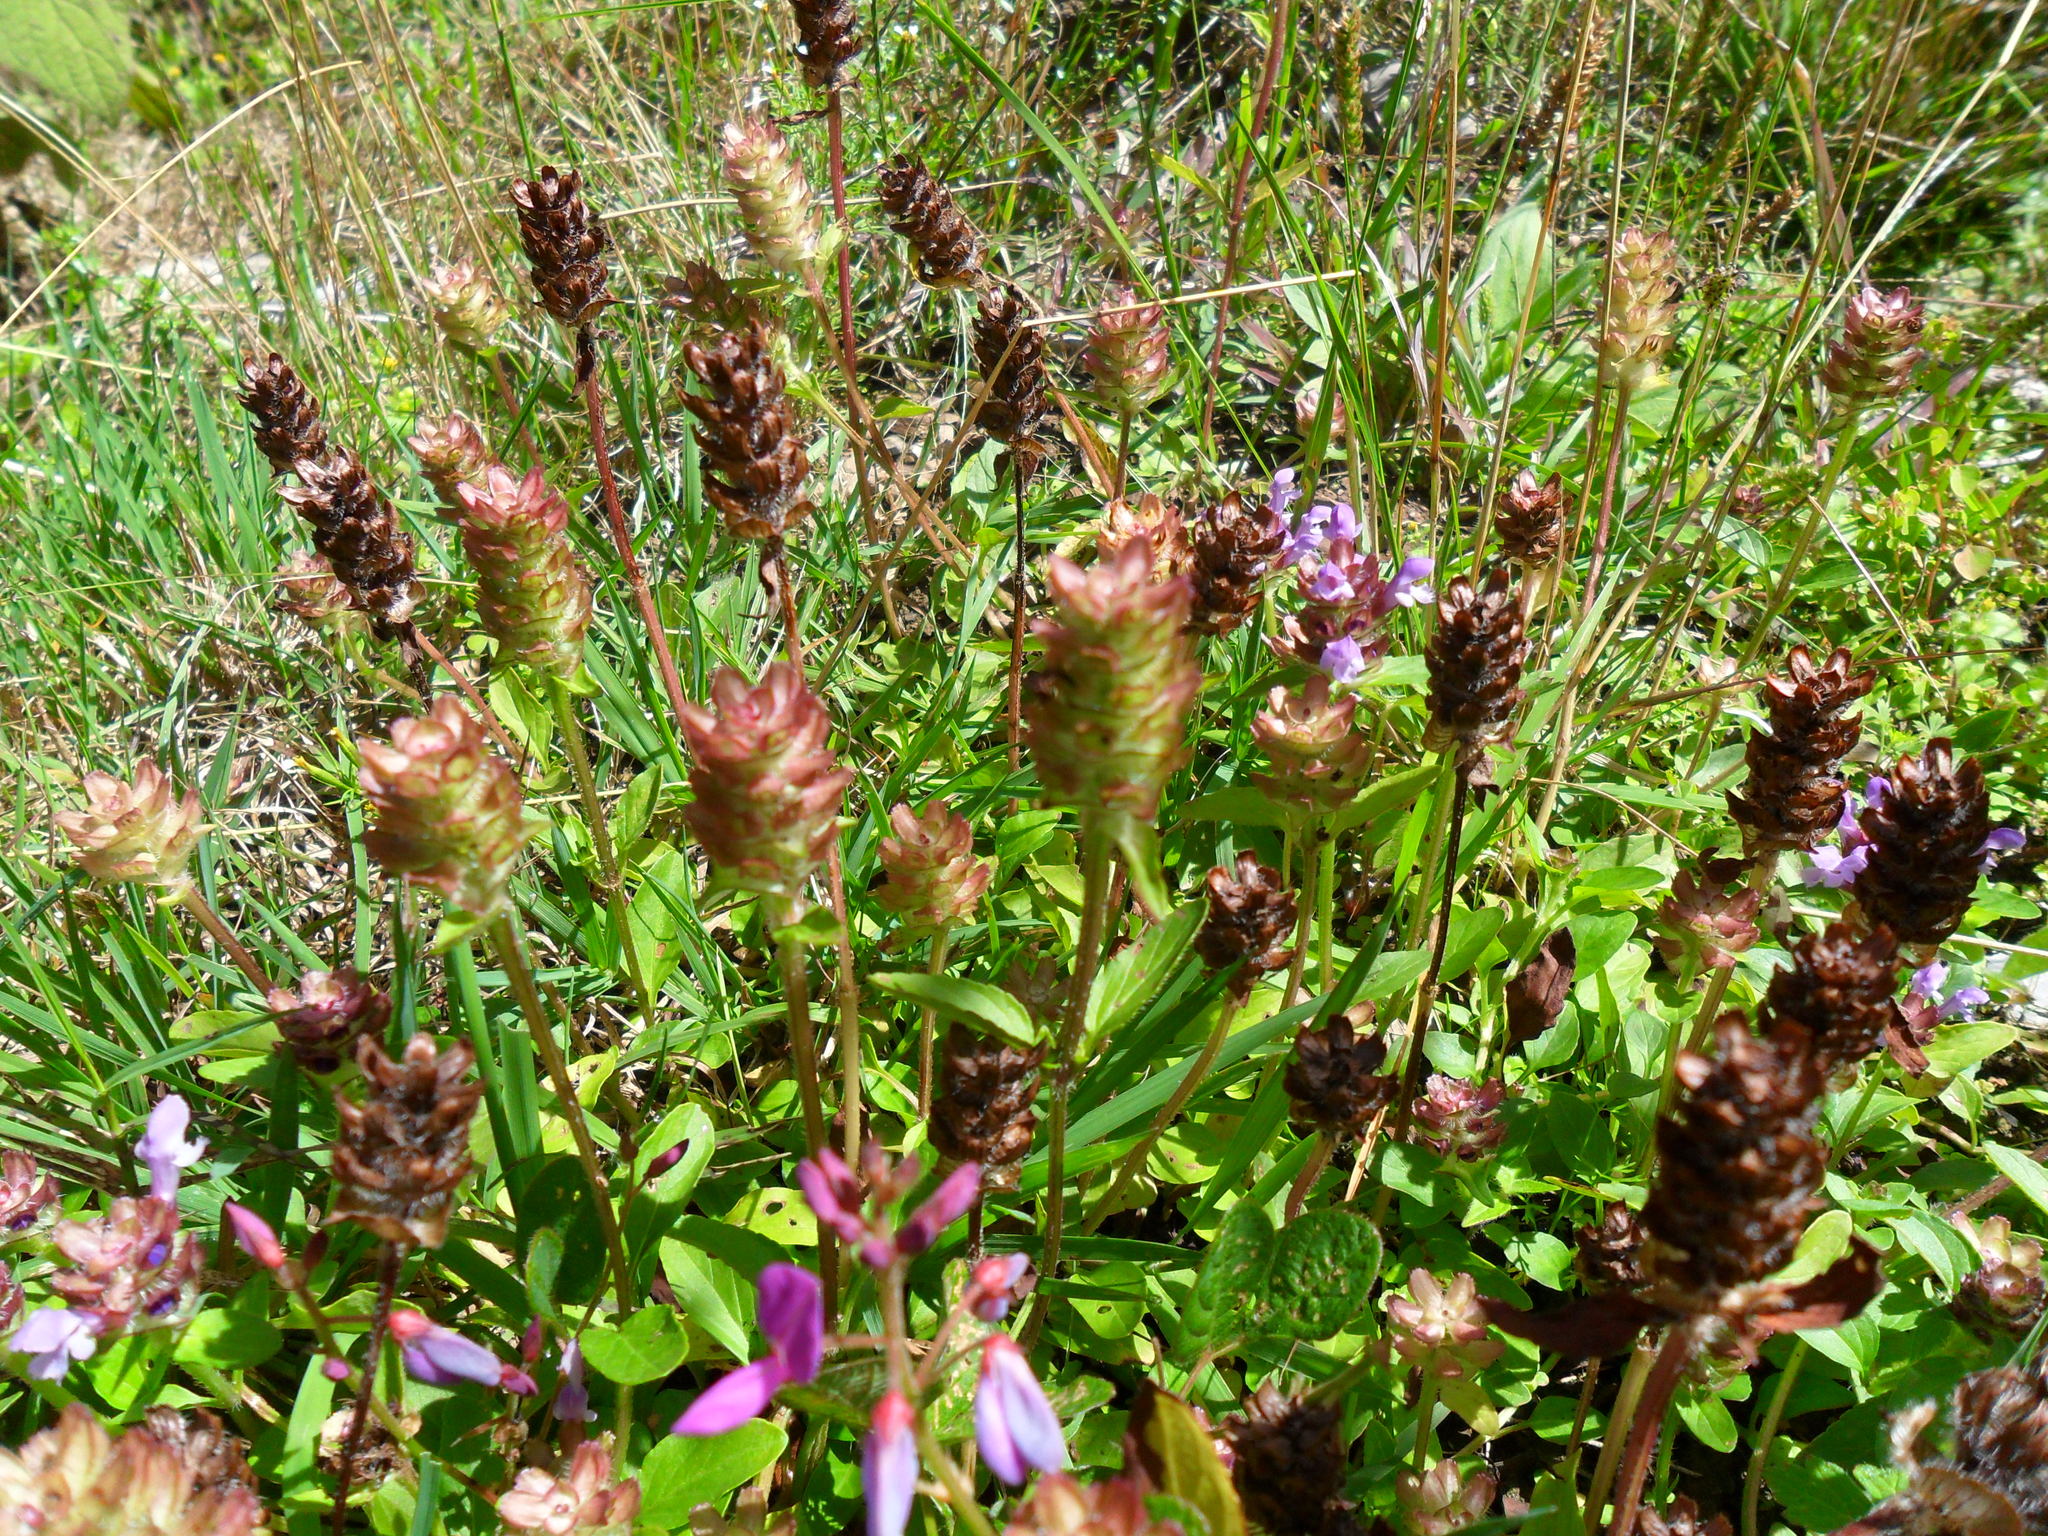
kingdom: Plantae
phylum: Tracheophyta
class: Magnoliopsida
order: Lamiales
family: Lamiaceae
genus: Prunella
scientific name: Prunella vulgaris
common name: Heal-all
